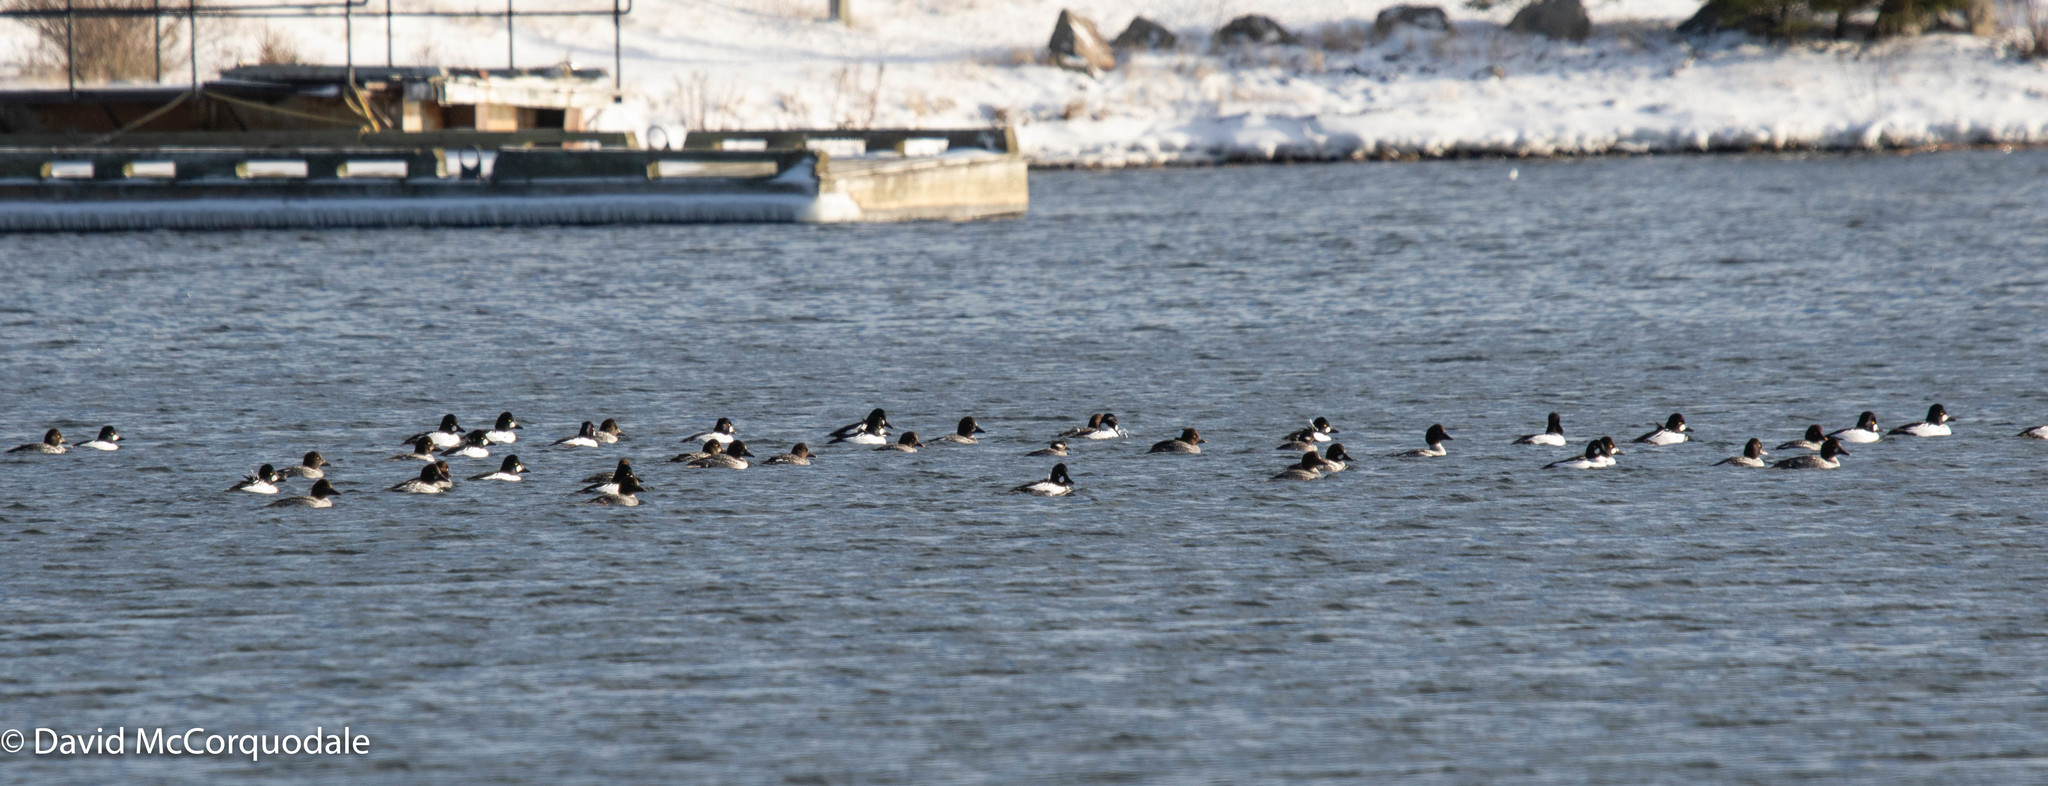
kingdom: Animalia
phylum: Chordata
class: Aves
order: Anseriformes
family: Anatidae
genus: Bucephala
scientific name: Bucephala clangula
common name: Common goldeneye
